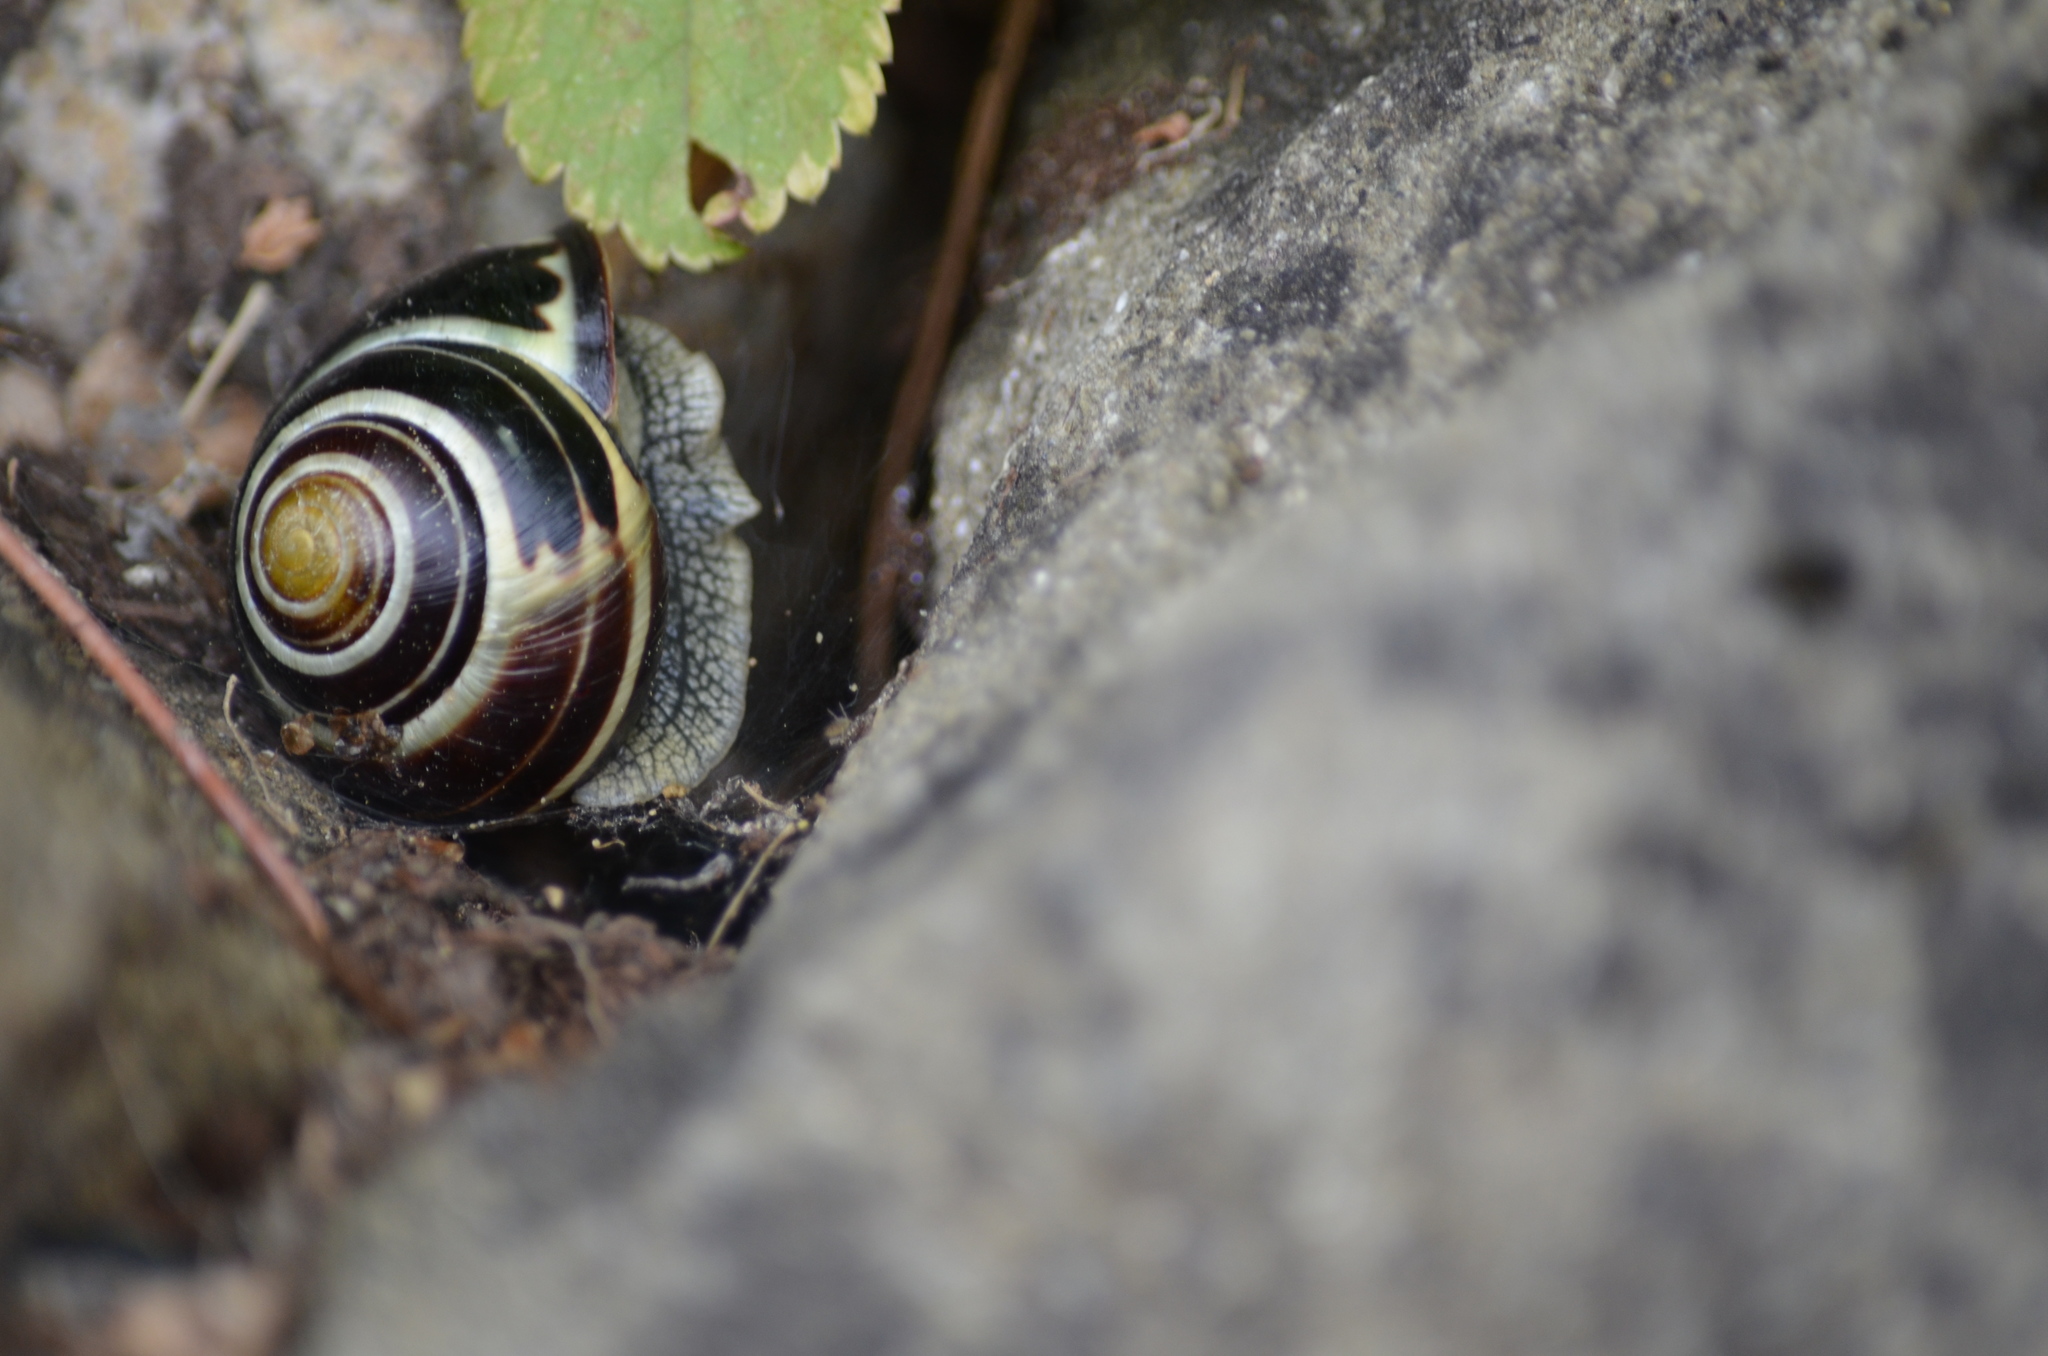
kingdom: Animalia
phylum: Mollusca
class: Gastropoda
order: Stylommatophora
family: Helicidae
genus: Cepaea
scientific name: Cepaea nemoralis
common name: Grovesnail
